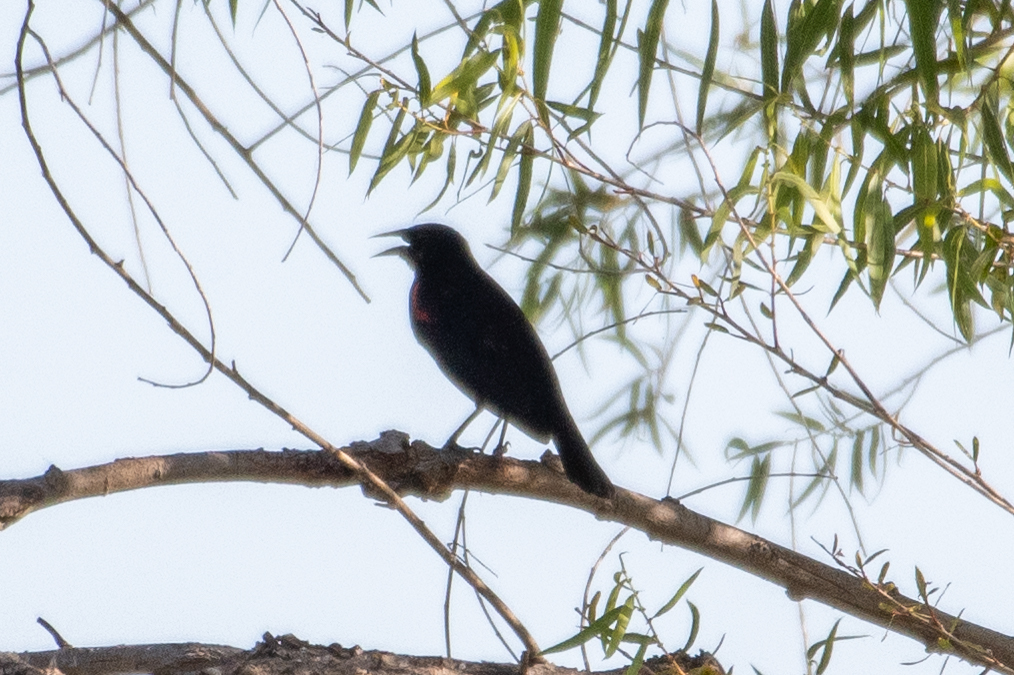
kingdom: Animalia
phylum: Chordata
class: Aves
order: Passeriformes
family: Icteridae
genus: Agelaius
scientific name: Agelaius phoeniceus
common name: Red-winged blackbird
